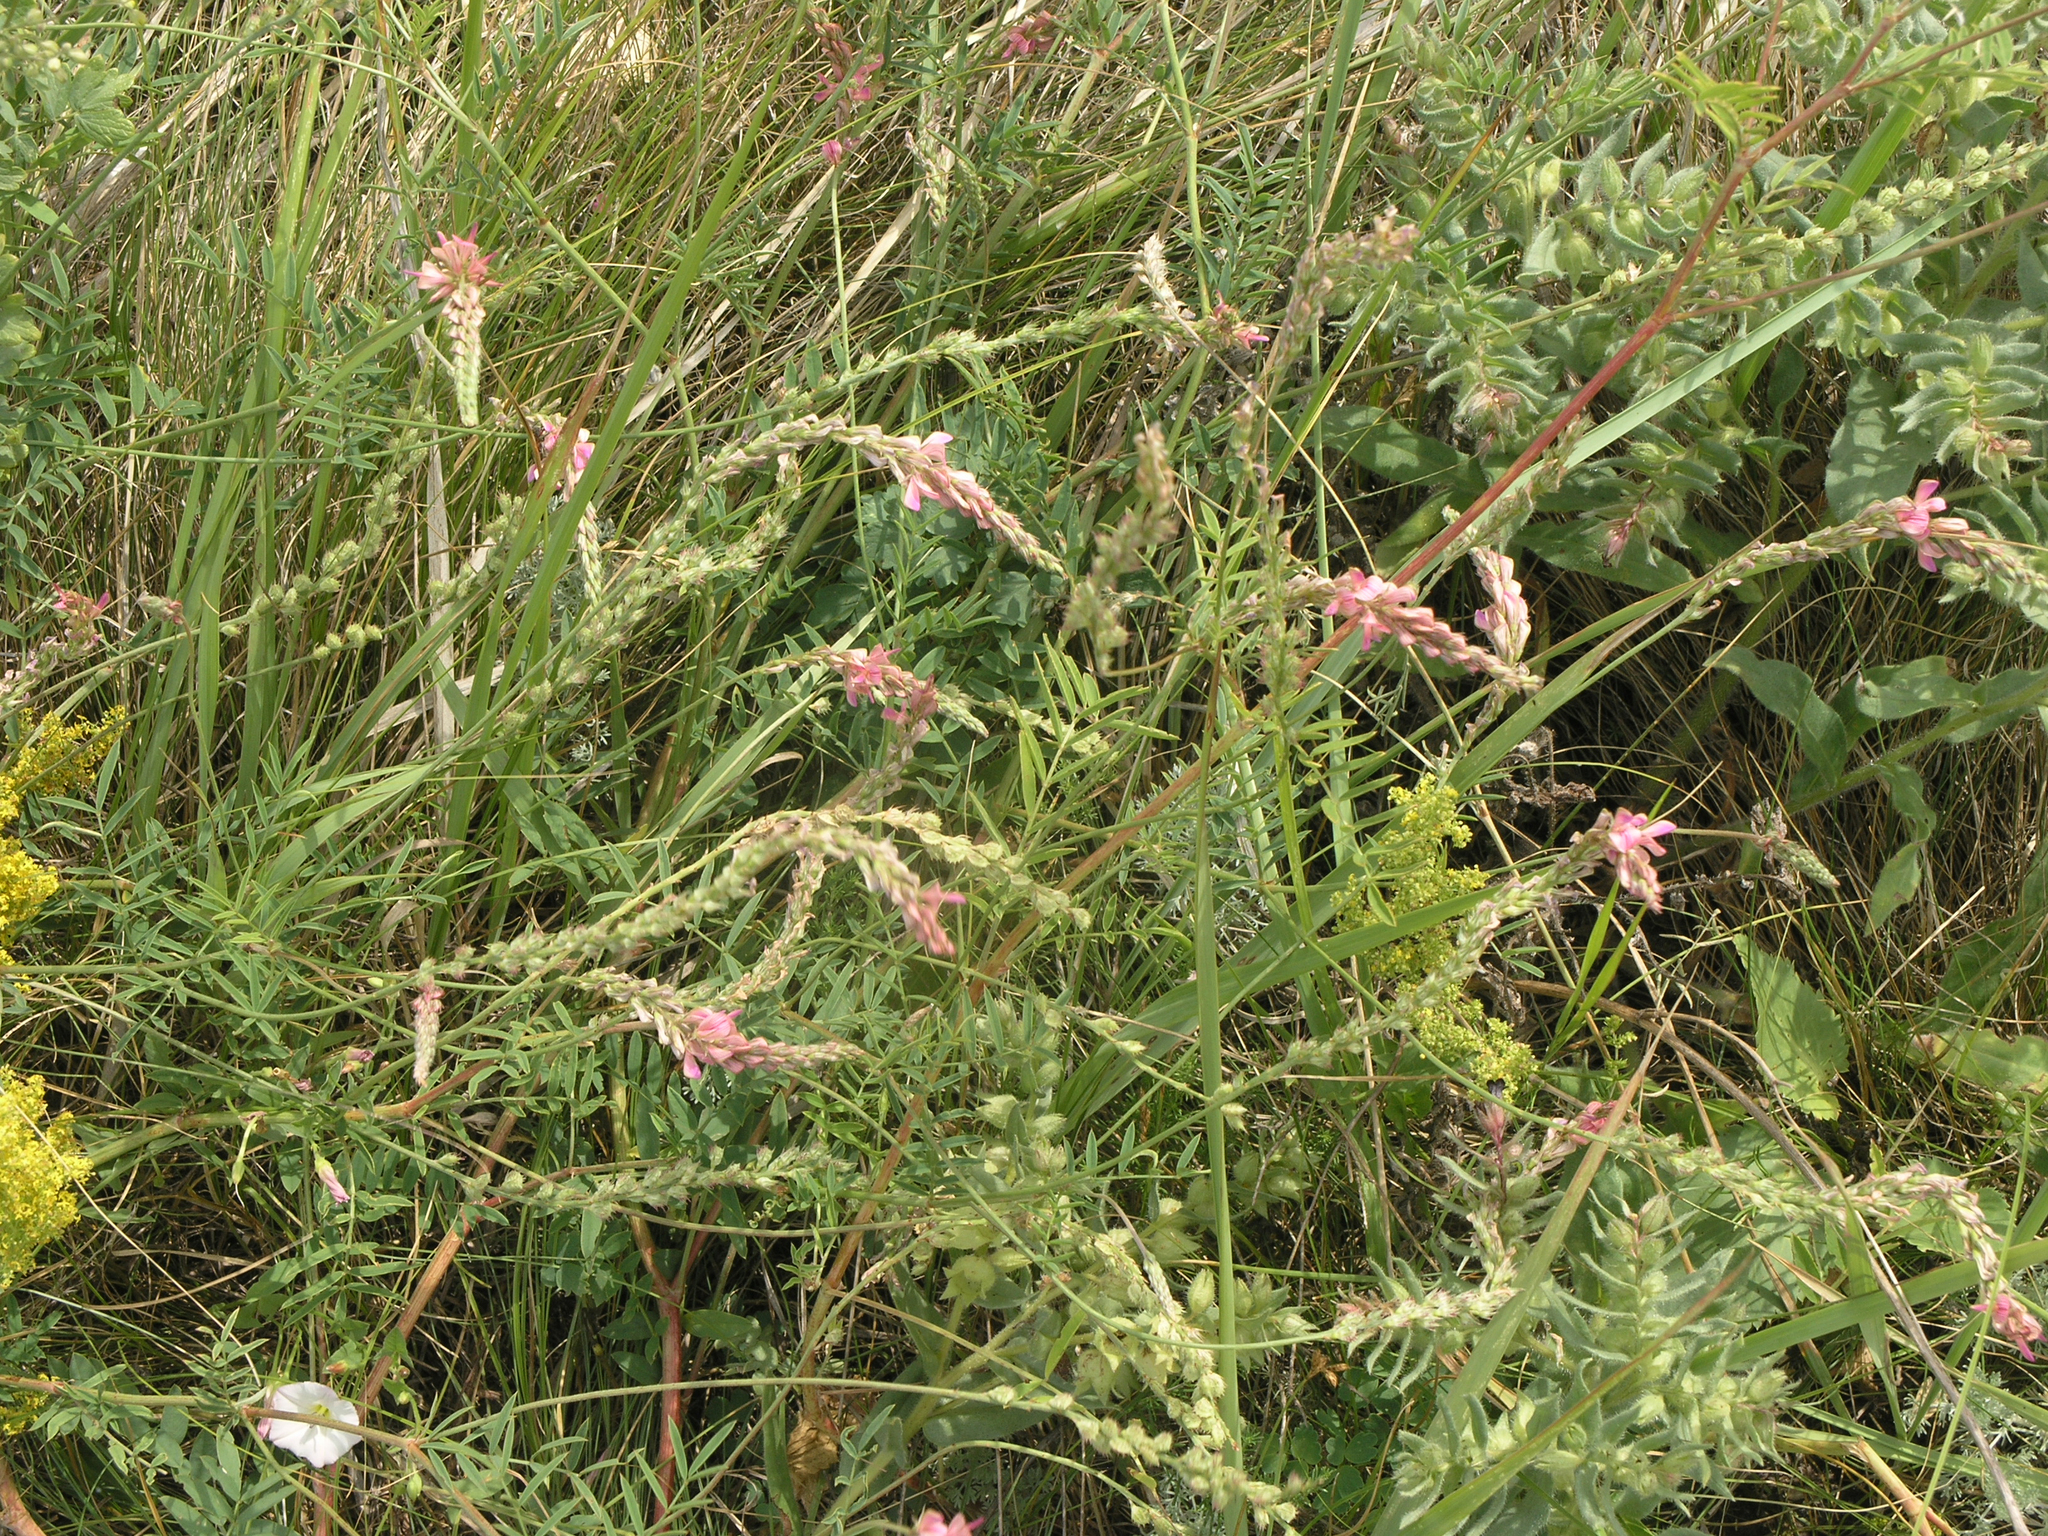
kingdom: Plantae
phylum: Tracheophyta
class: Magnoliopsida
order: Fabales
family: Fabaceae
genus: Onobrychis
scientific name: Onobrychis arenaria
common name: Sand esparcet
